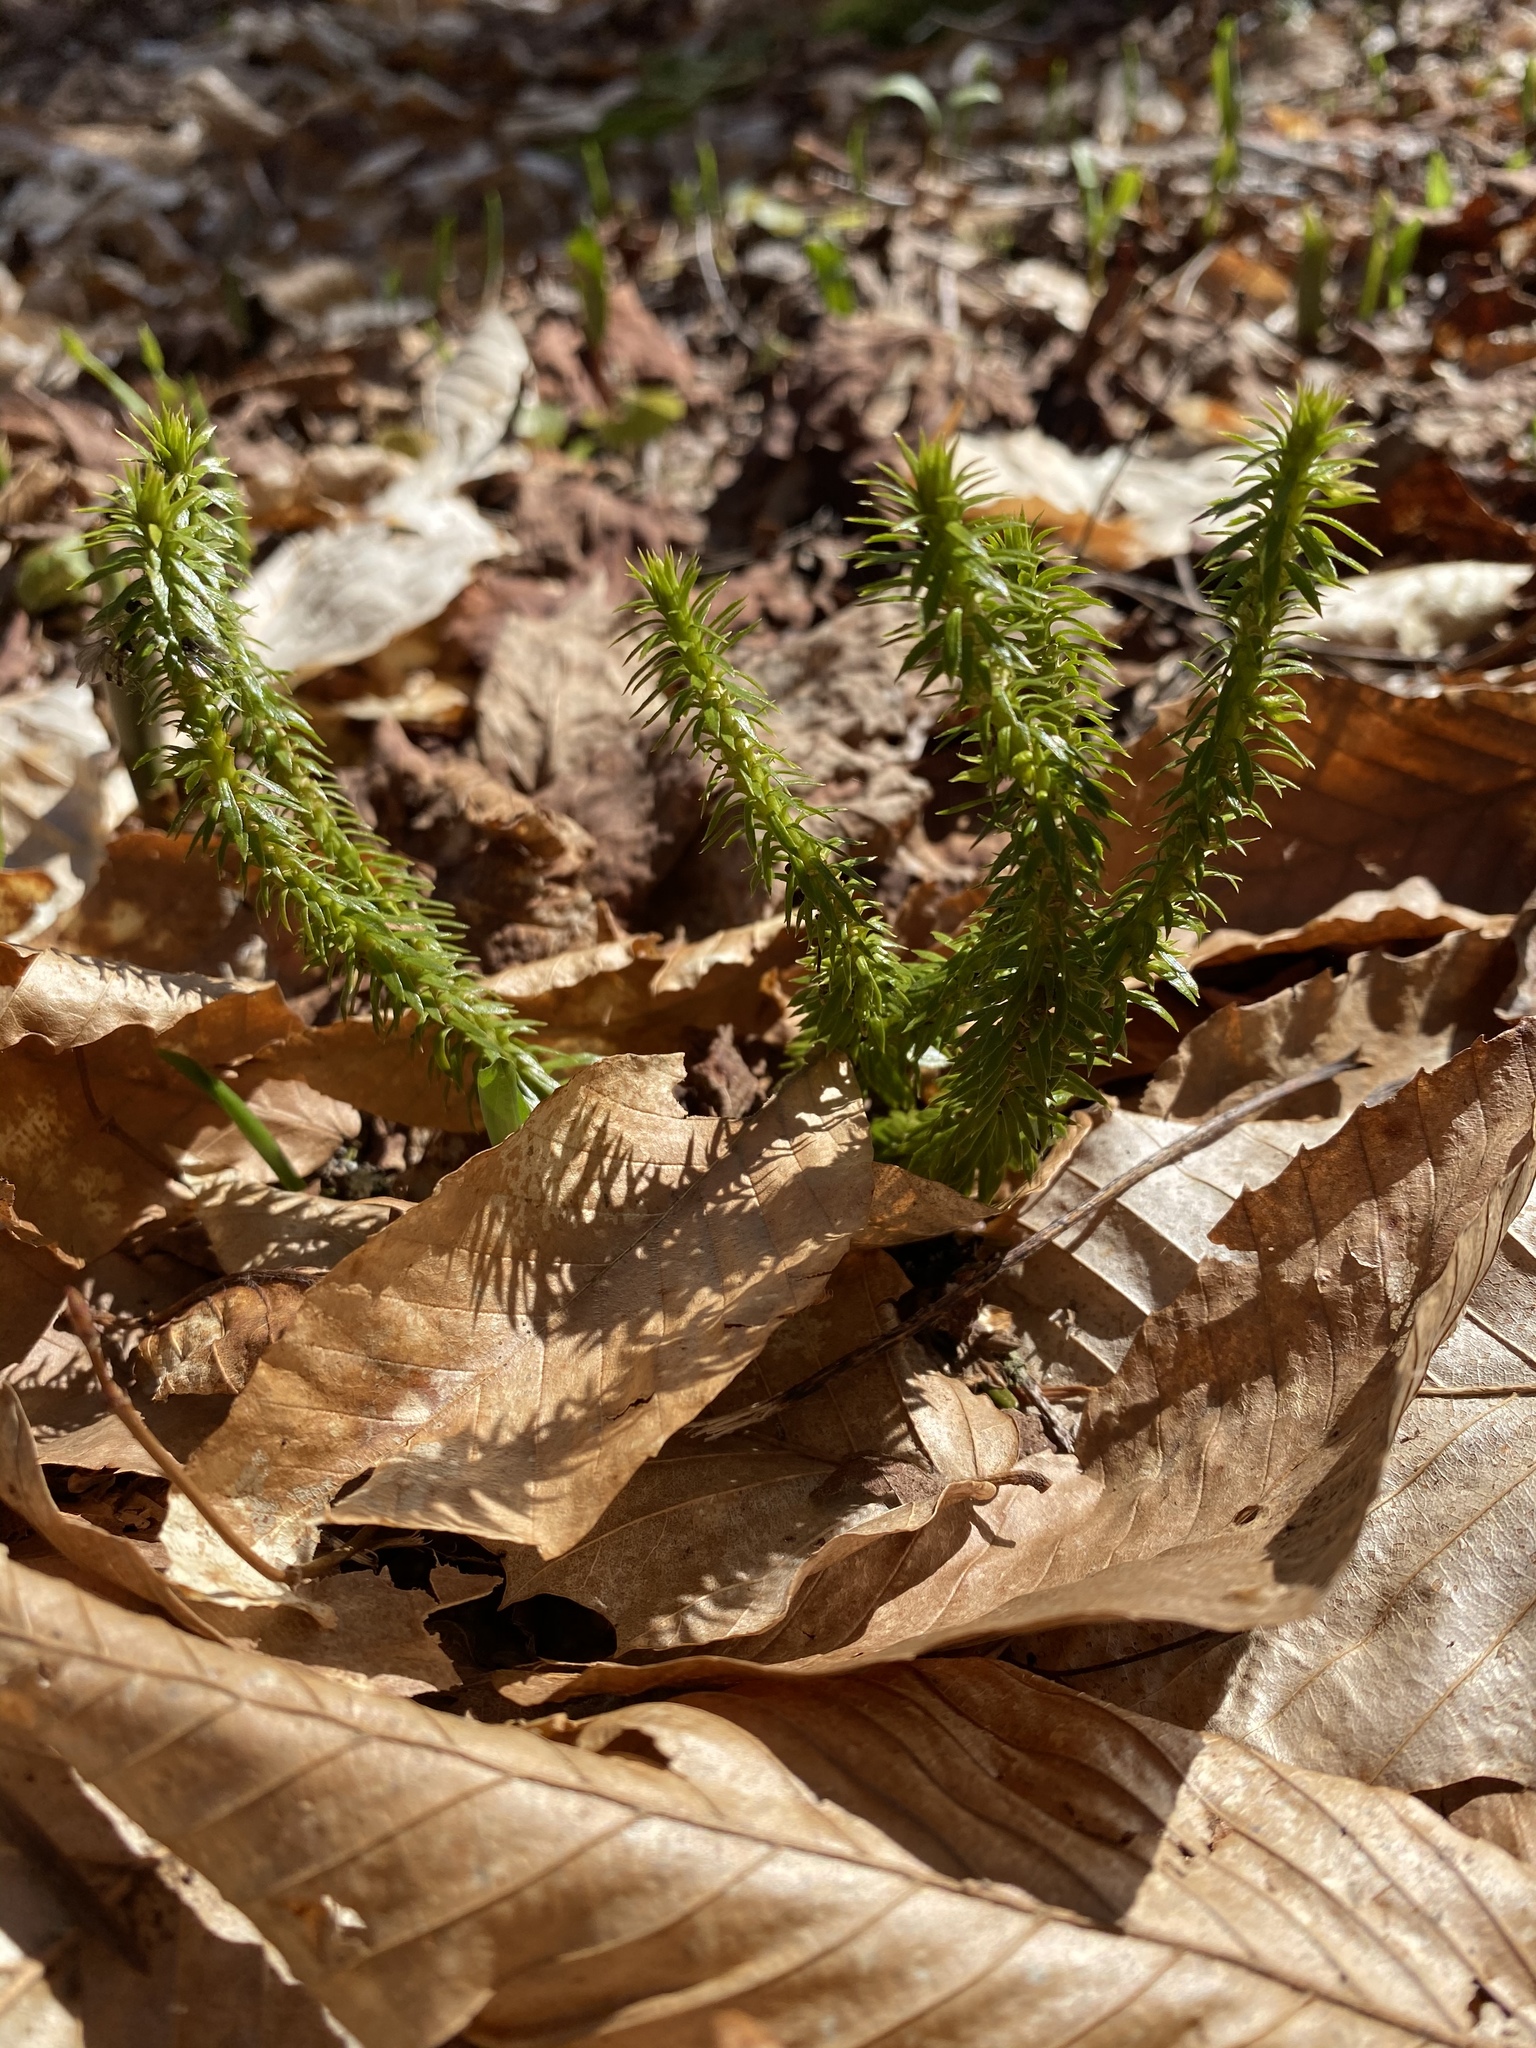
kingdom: Plantae
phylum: Tracheophyta
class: Lycopodiopsida
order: Lycopodiales
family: Lycopodiaceae
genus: Huperzia
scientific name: Huperzia lucidula
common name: Shining clubmoss
